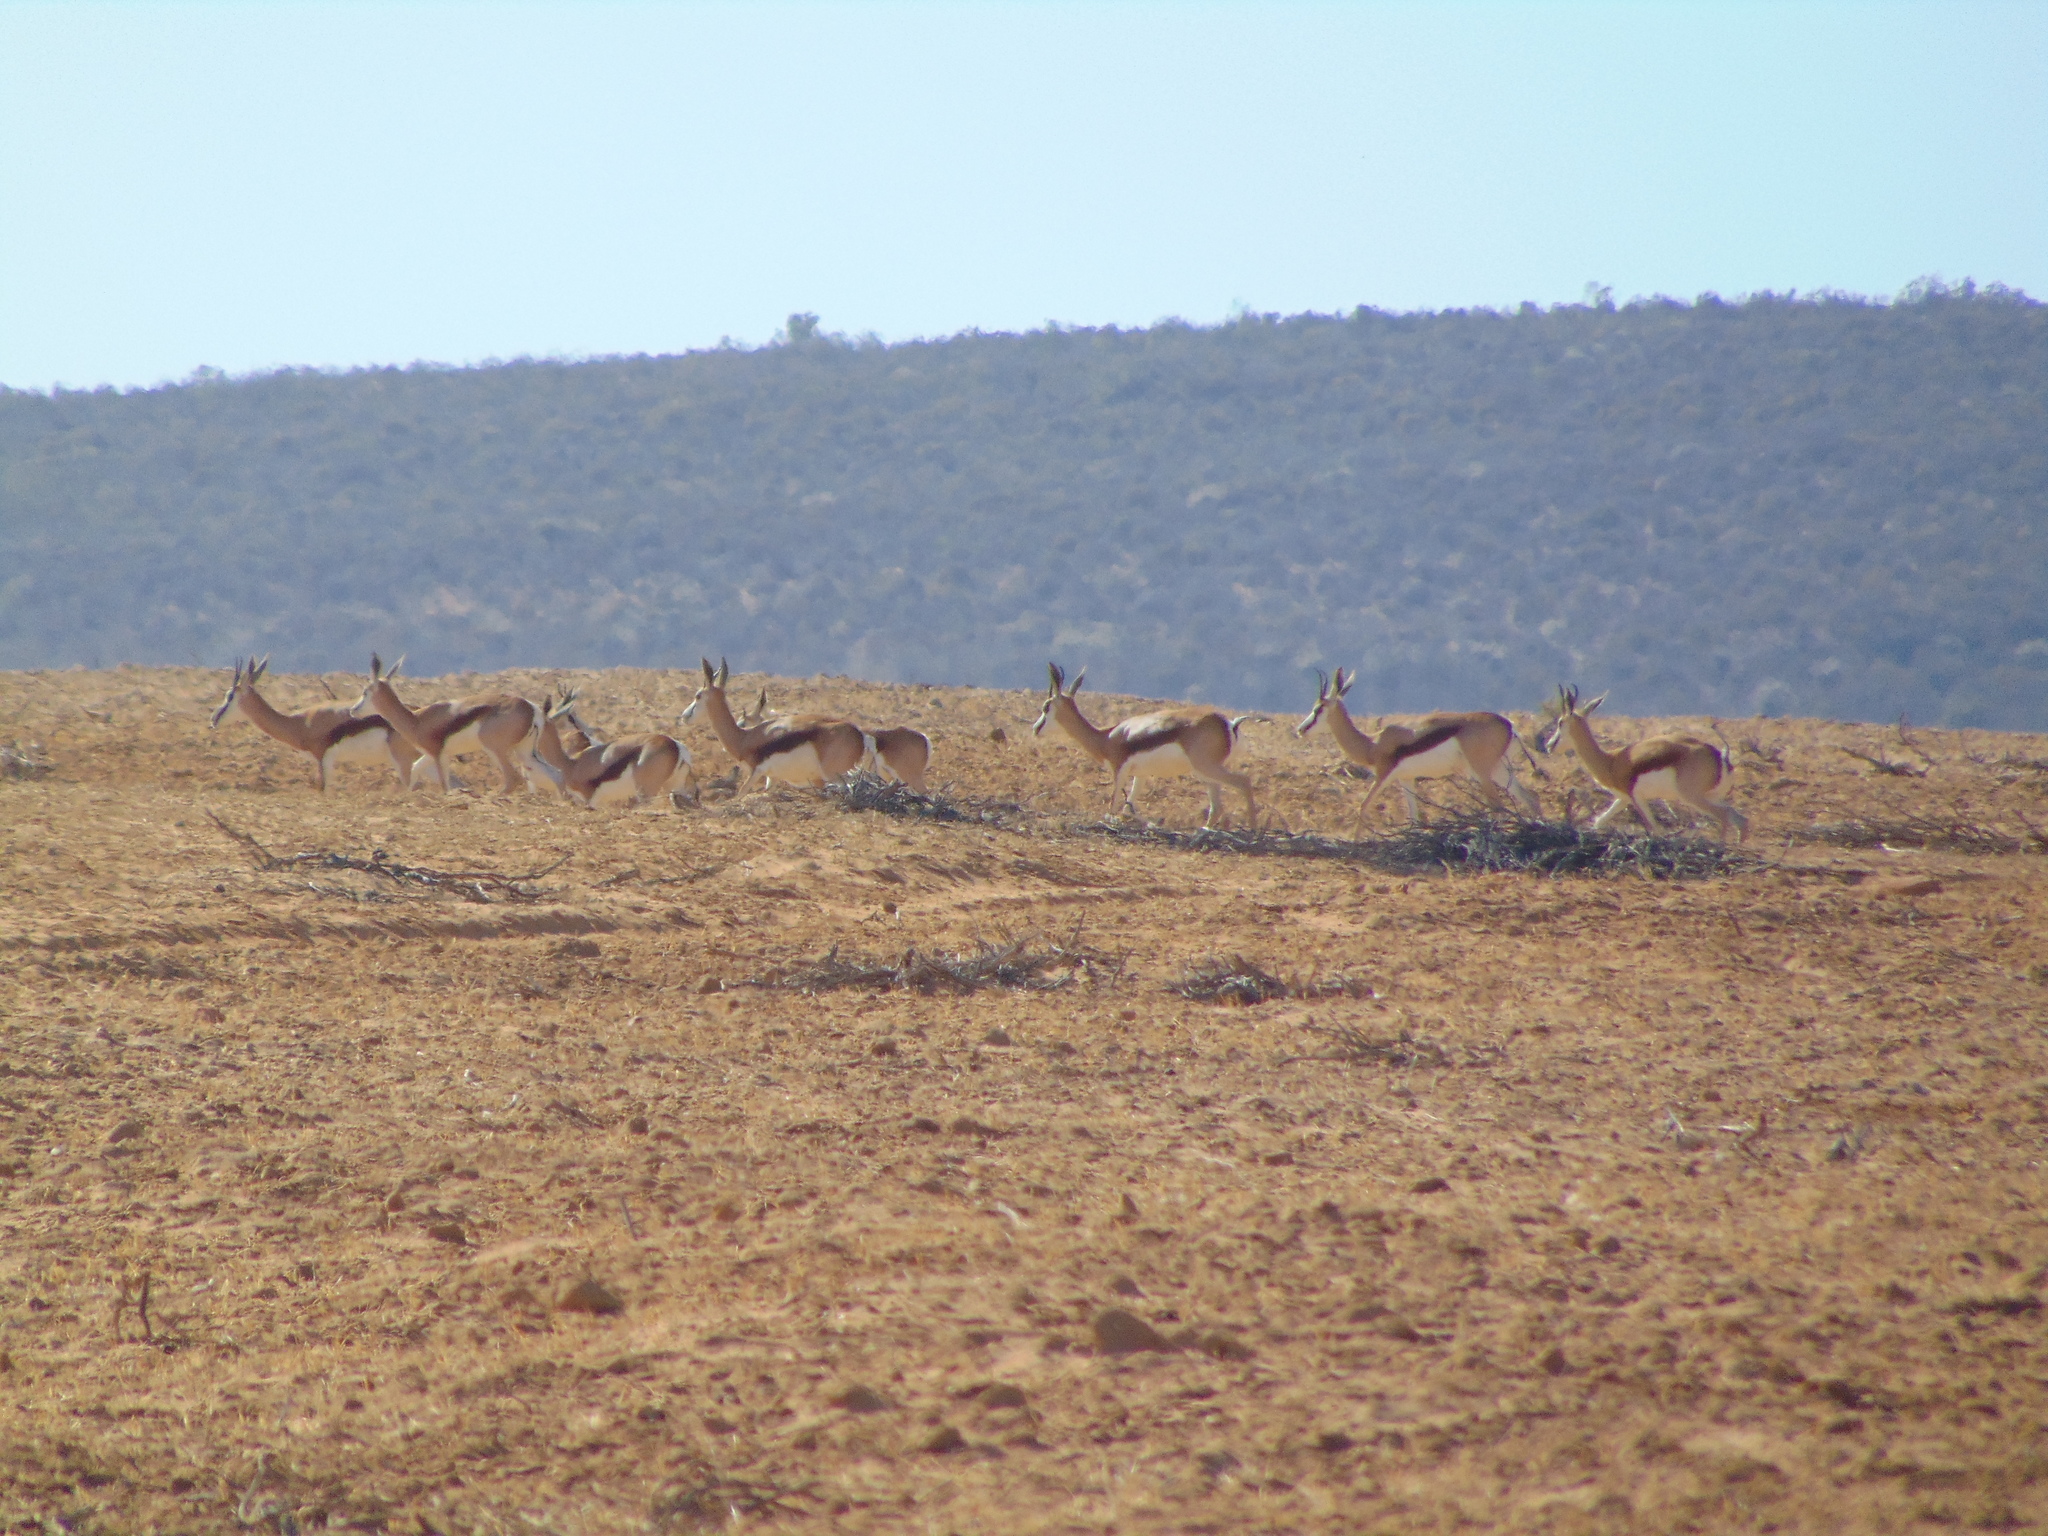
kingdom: Animalia
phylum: Chordata
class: Mammalia
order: Artiodactyla
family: Bovidae
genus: Antidorcas
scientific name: Antidorcas marsupialis
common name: Springbok
